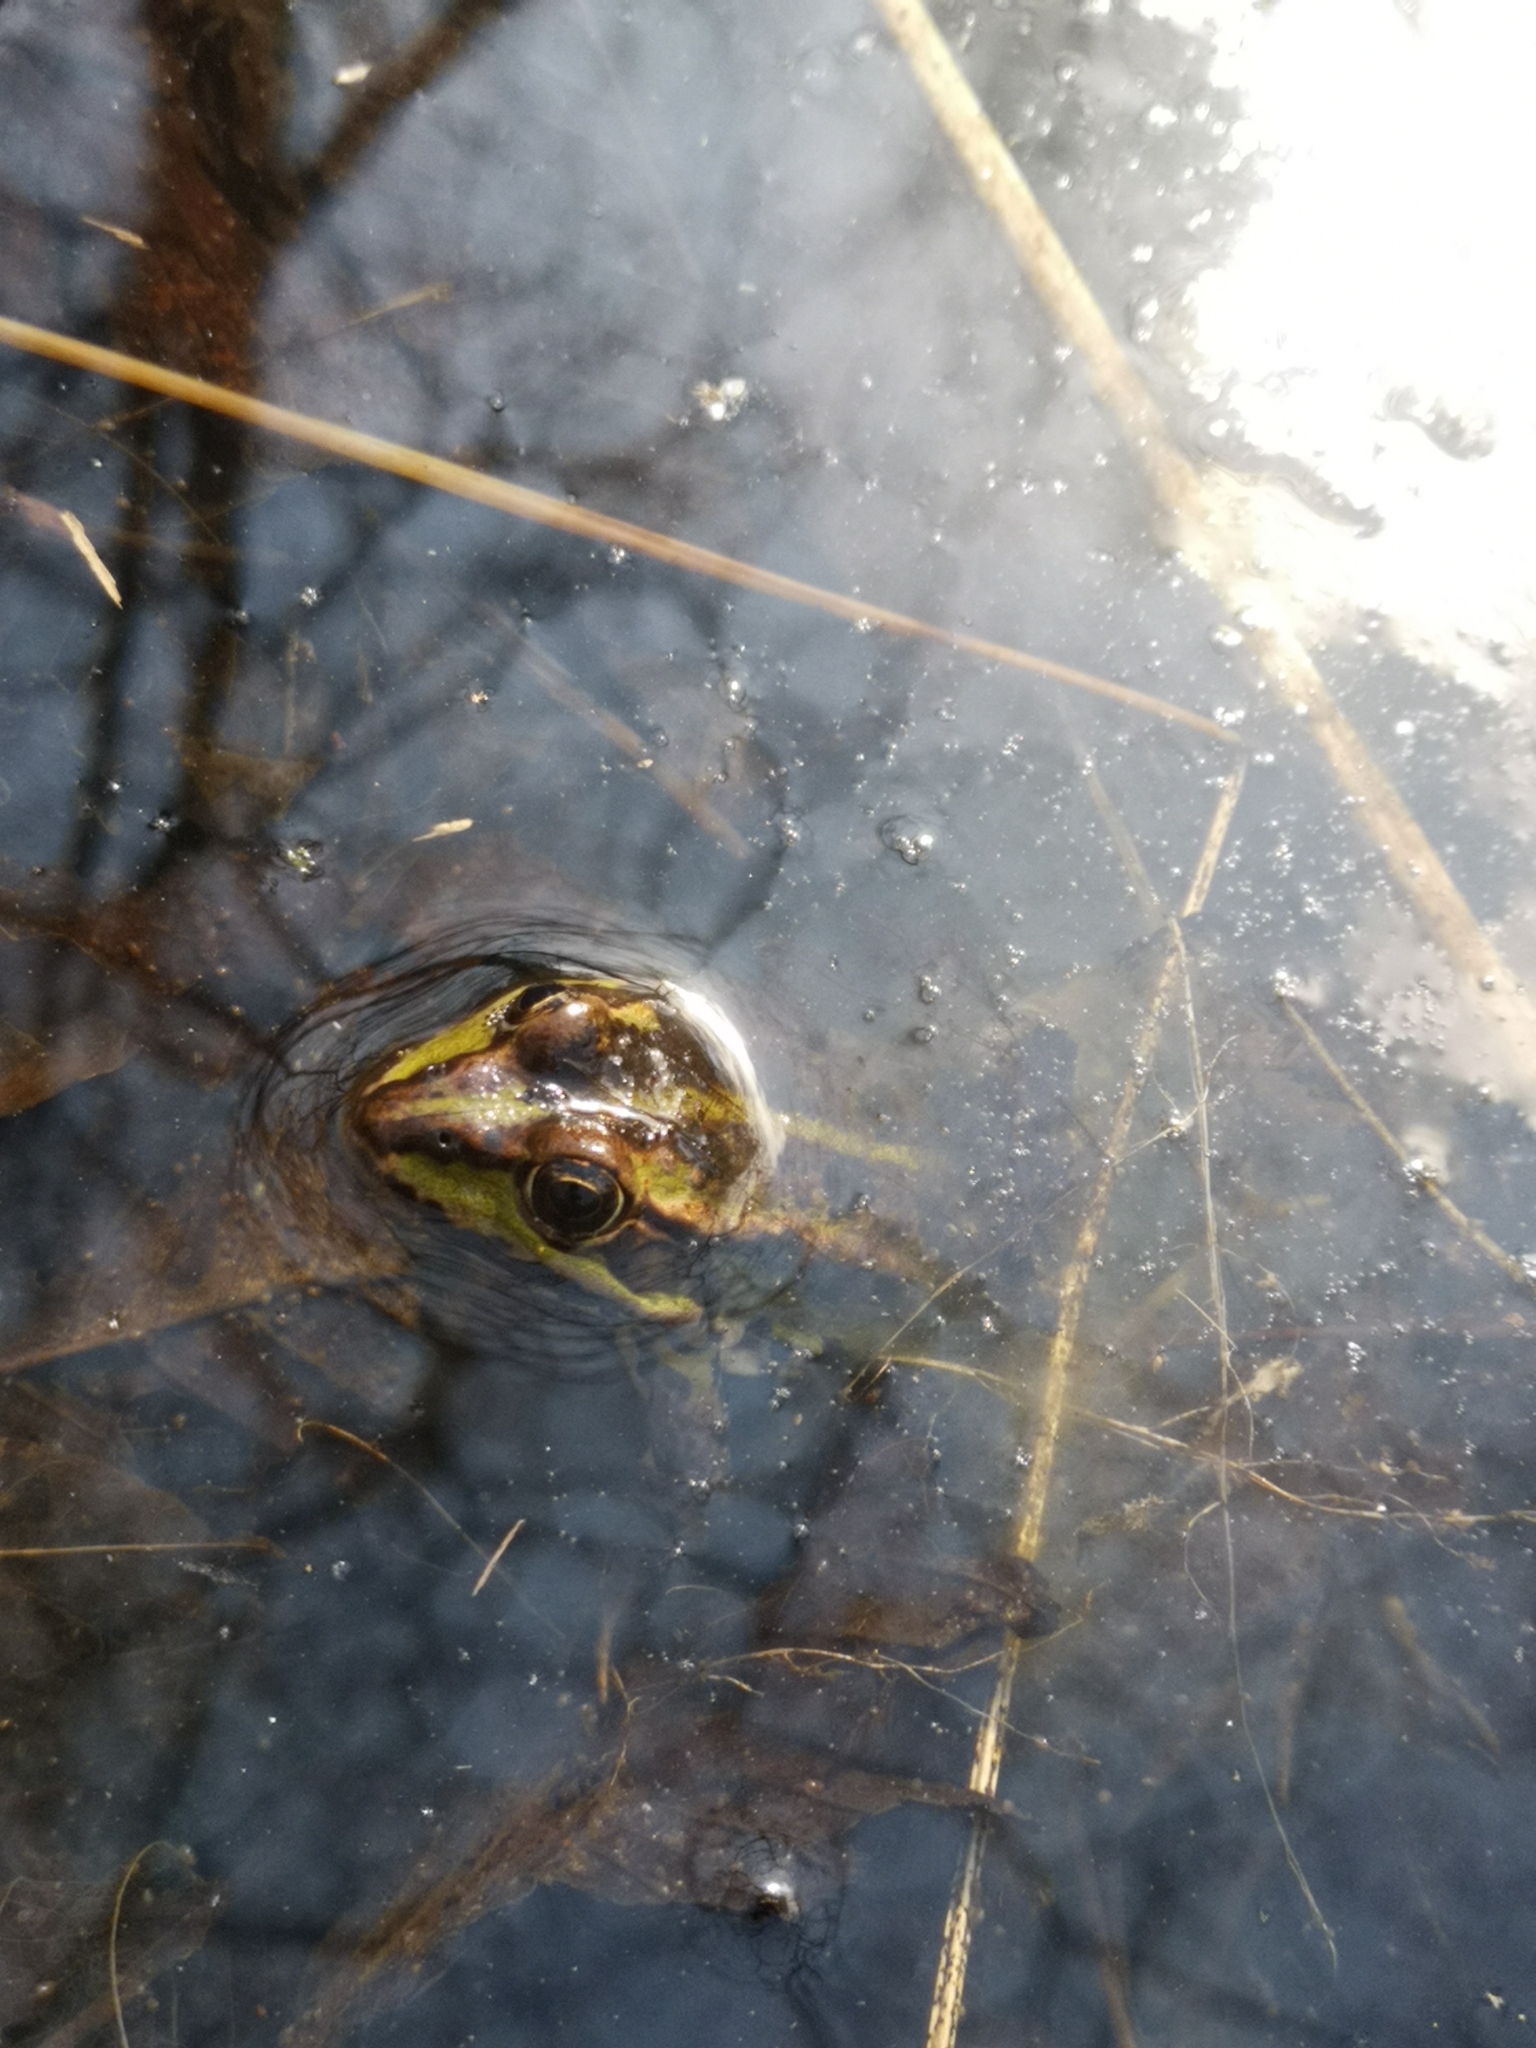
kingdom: Animalia
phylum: Chordata
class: Amphibia
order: Anura
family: Ranidae
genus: Pelophylax
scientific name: Pelophylax
